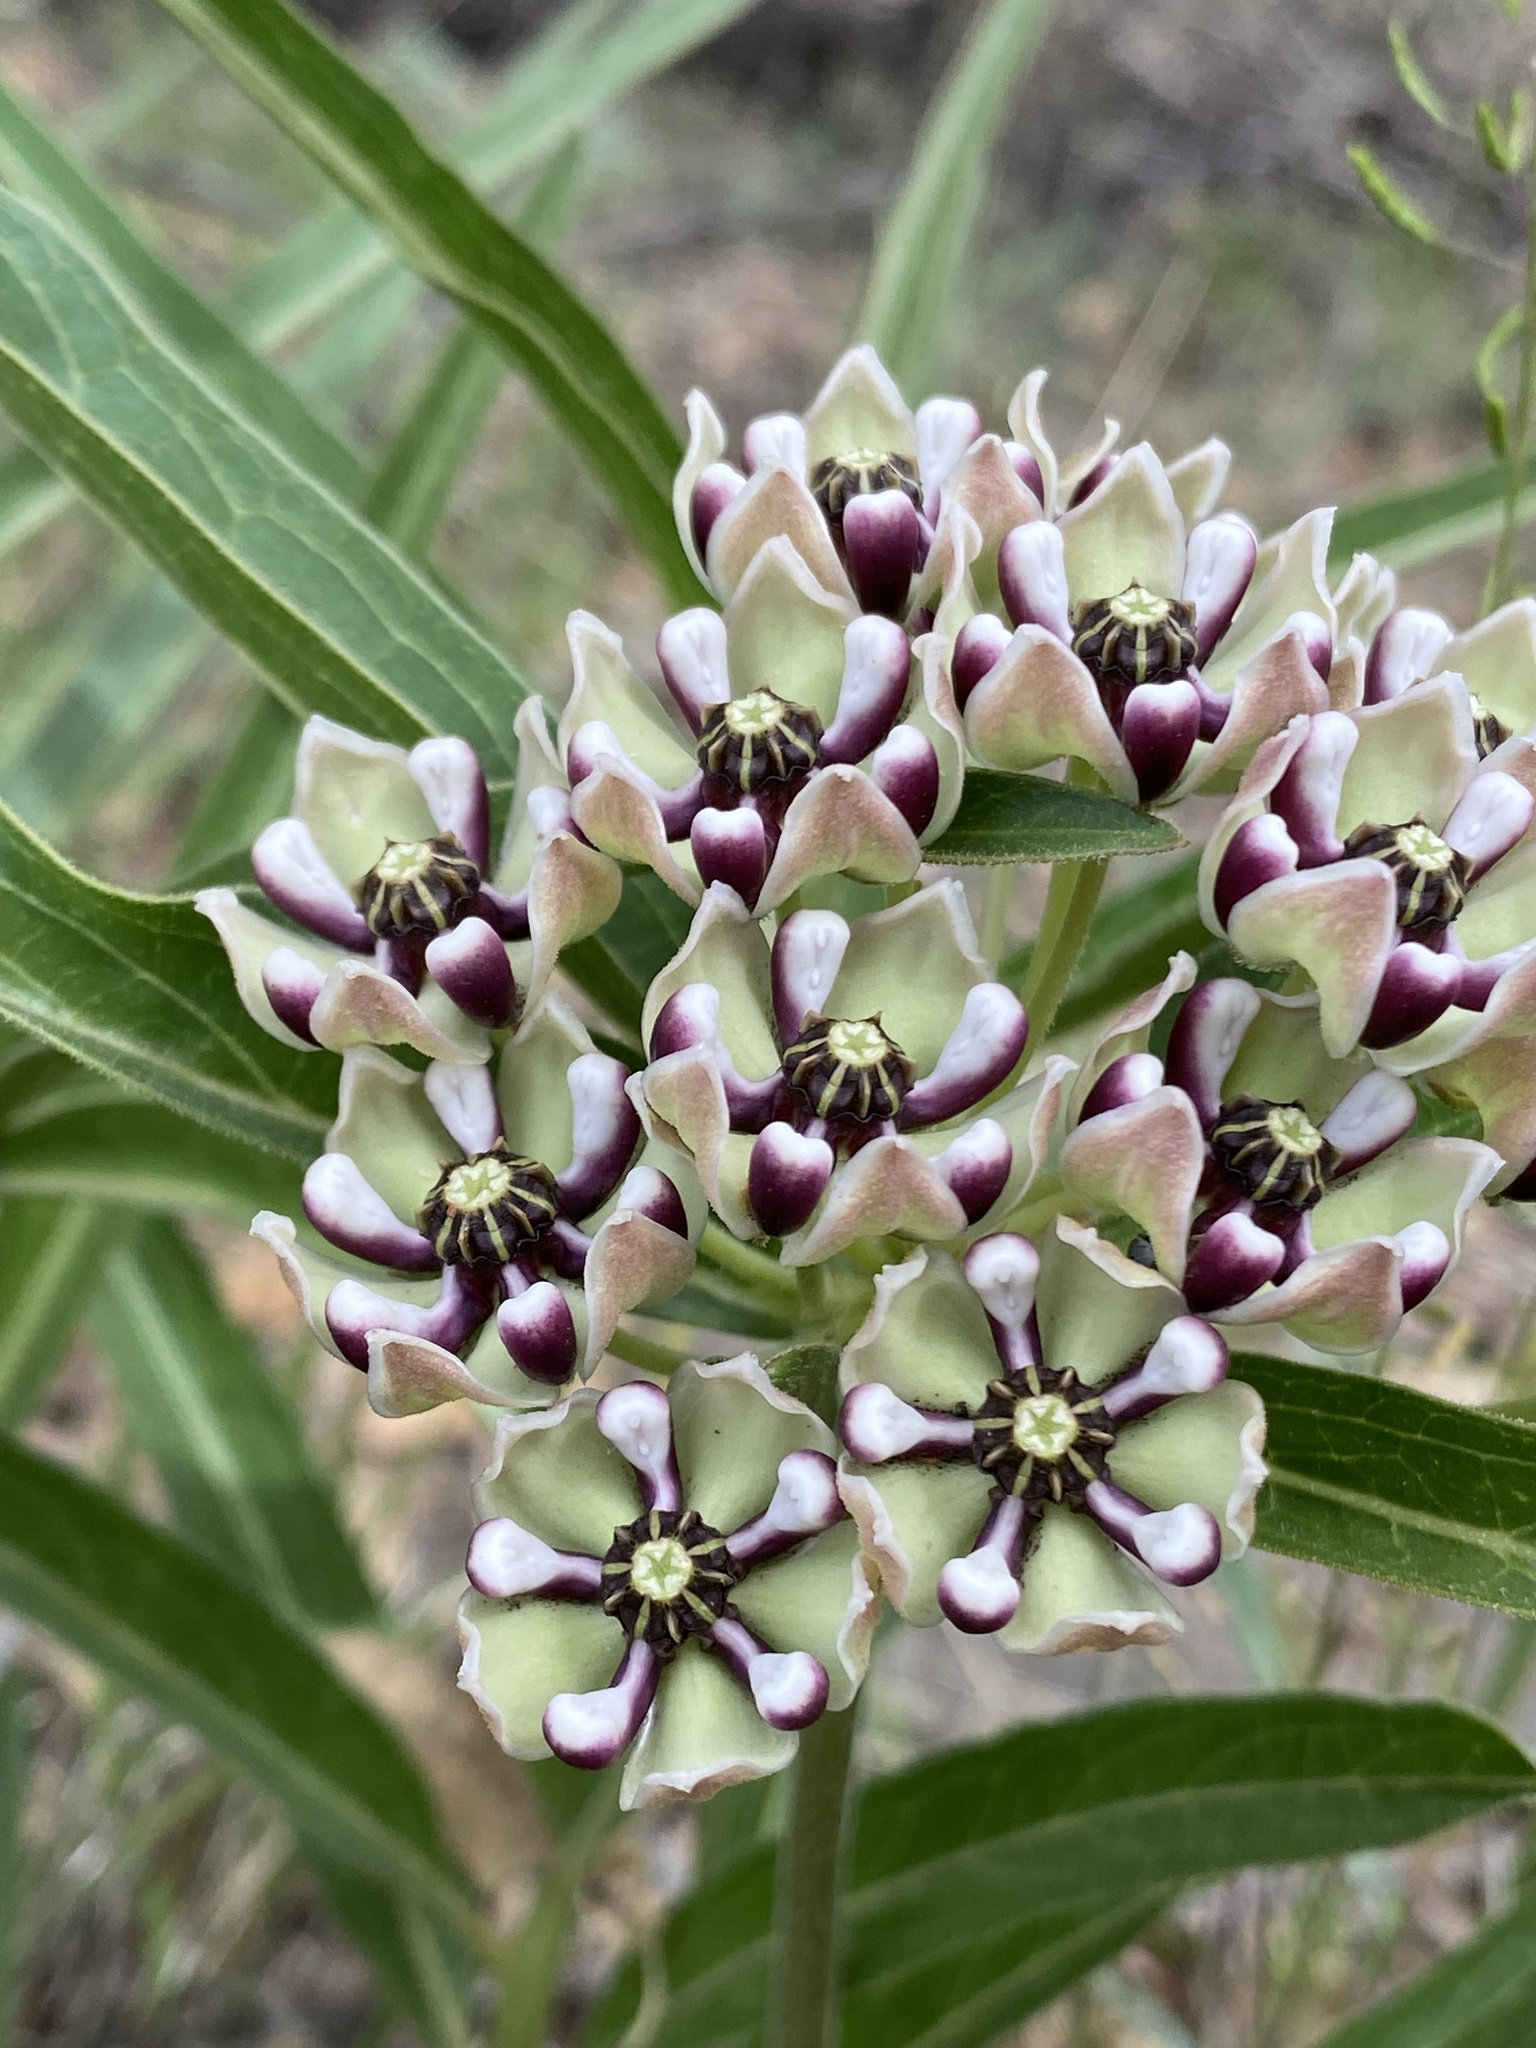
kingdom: Plantae
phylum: Tracheophyta
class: Magnoliopsida
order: Gentianales
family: Apocynaceae
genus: Asclepias
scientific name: Asclepias asperula
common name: Antelope horns
